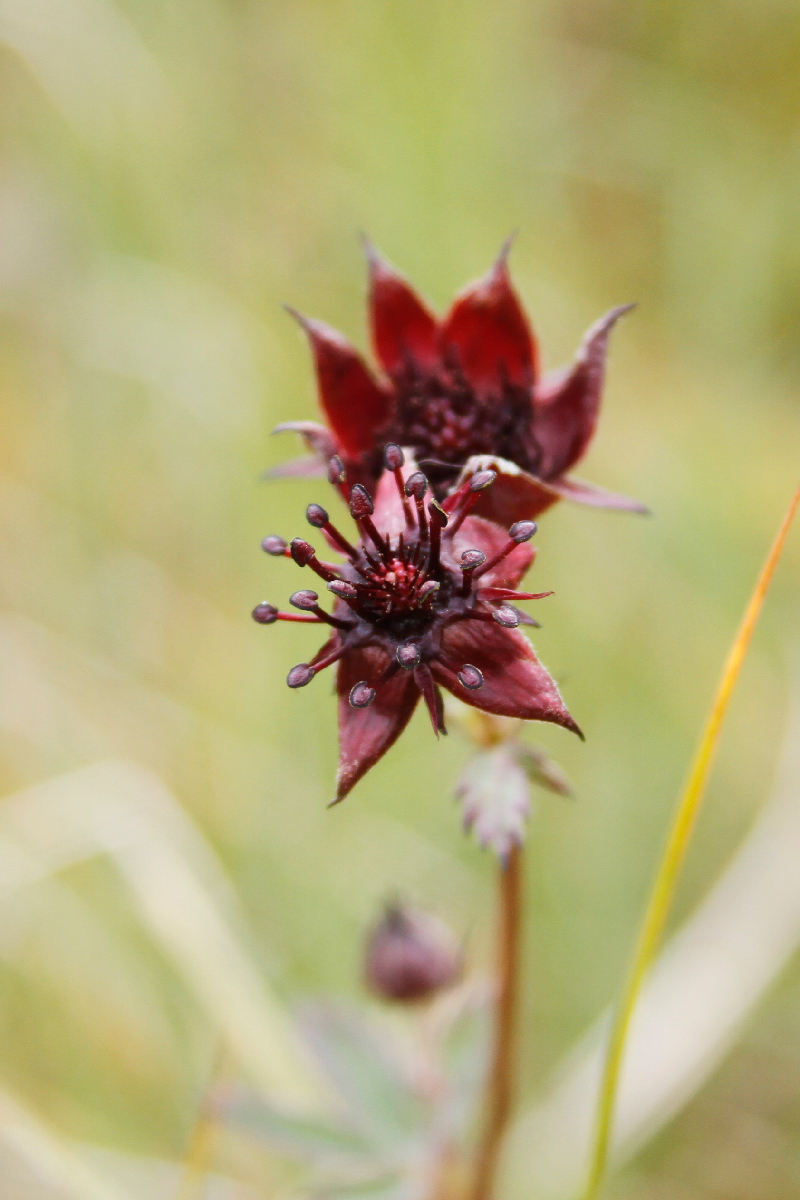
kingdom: Plantae
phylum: Tracheophyta
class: Magnoliopsida
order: Rosales
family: Rosaceae
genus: Comarum
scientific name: Comarum palustre
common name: Marsh cinquefoil
